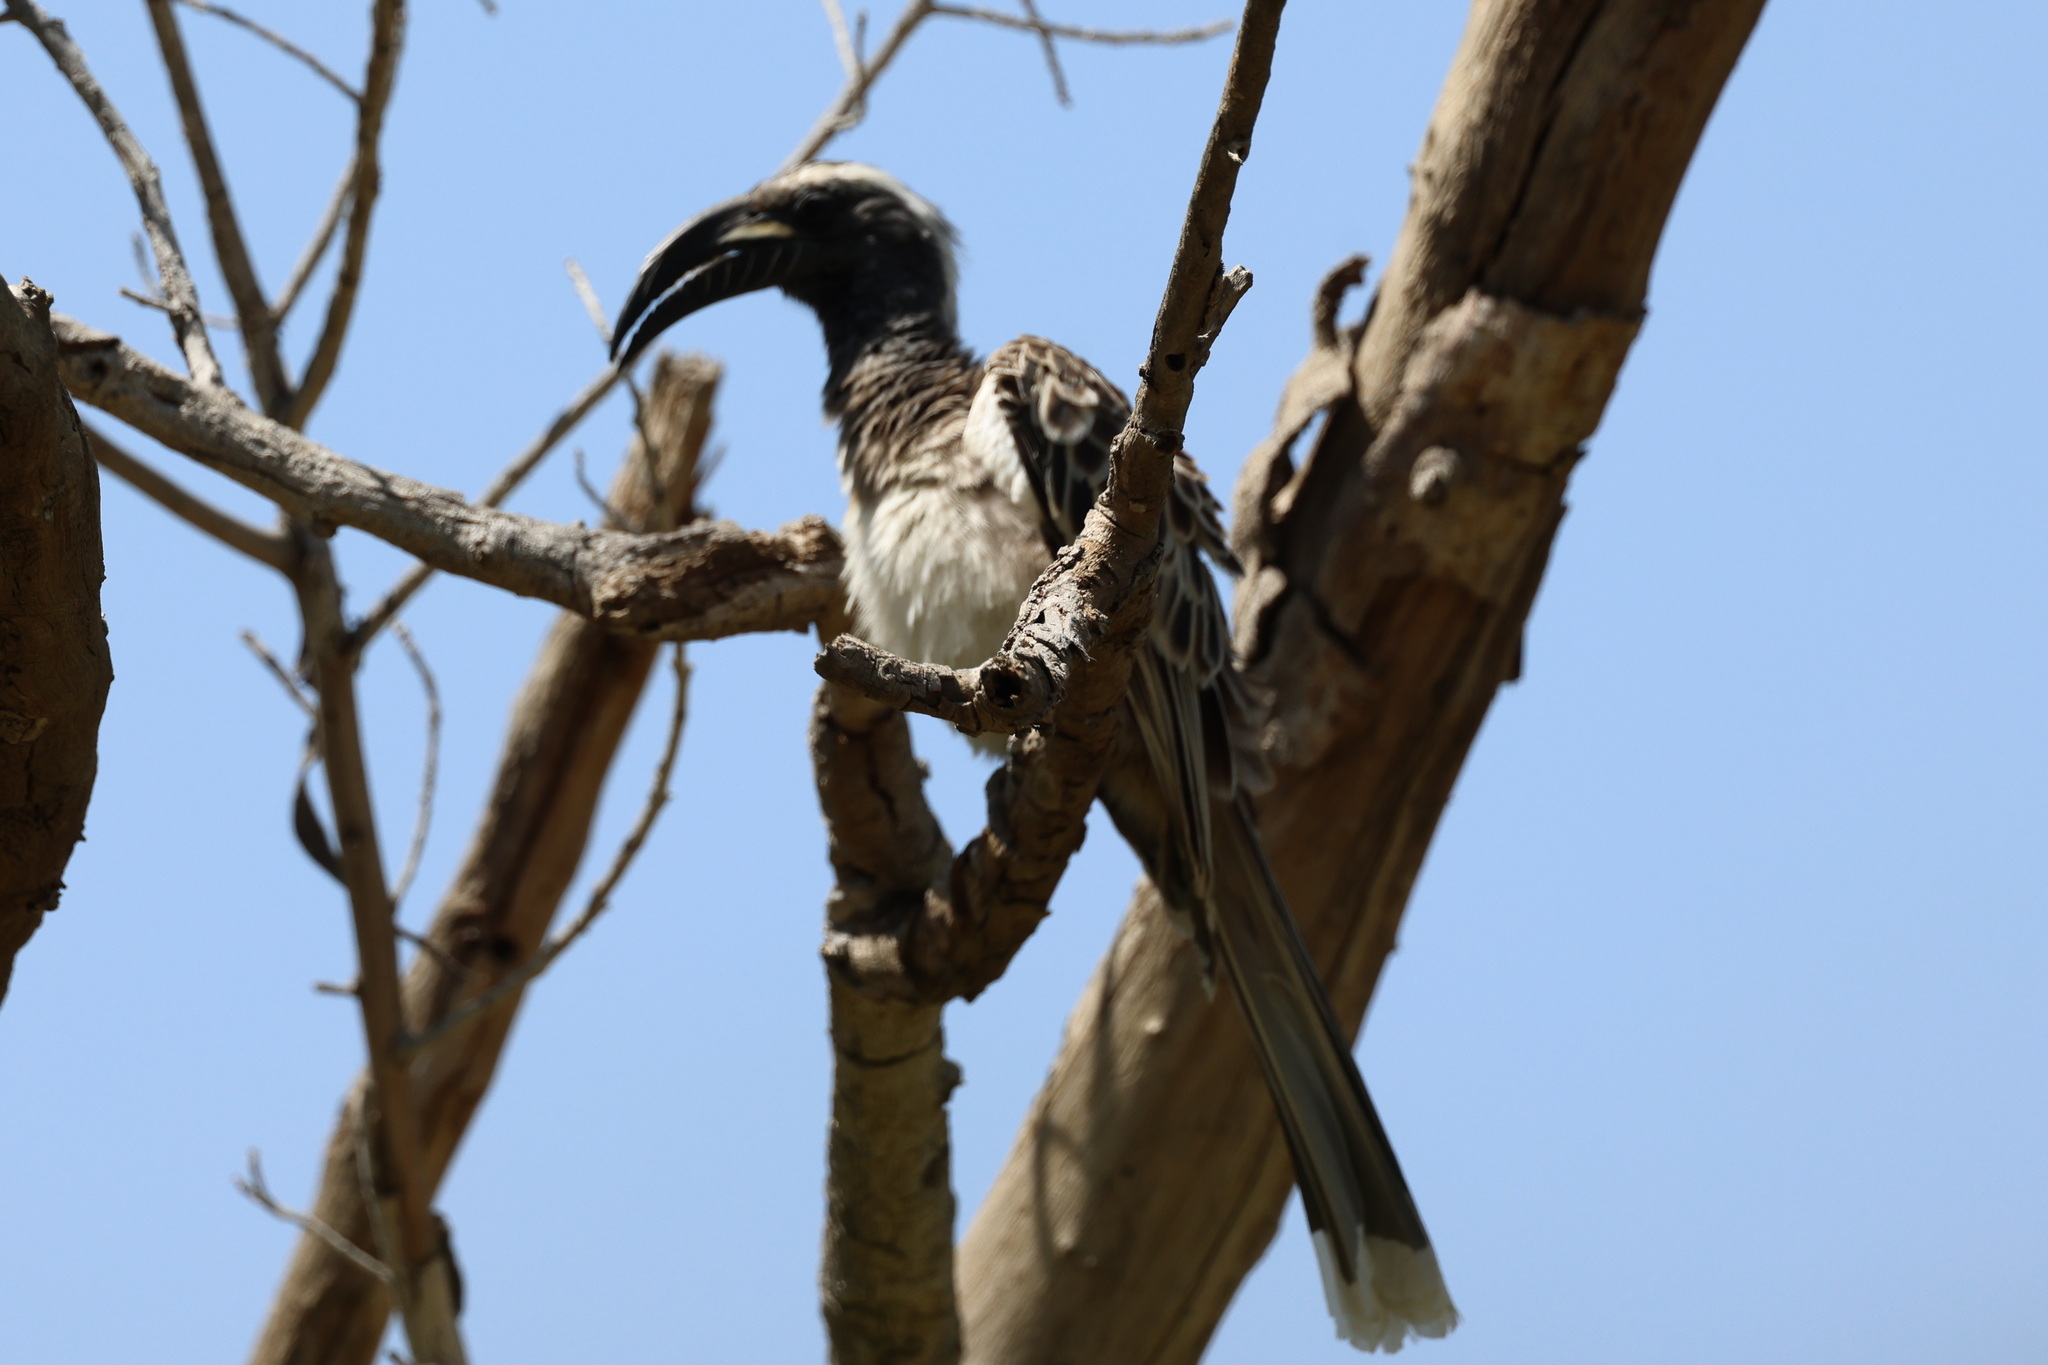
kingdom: Animalia
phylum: Chordata
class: Aves
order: Bucerotiformes
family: Bucerotidae
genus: Lophoceros
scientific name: Lophoceros nasutus
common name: African grey hornbill
